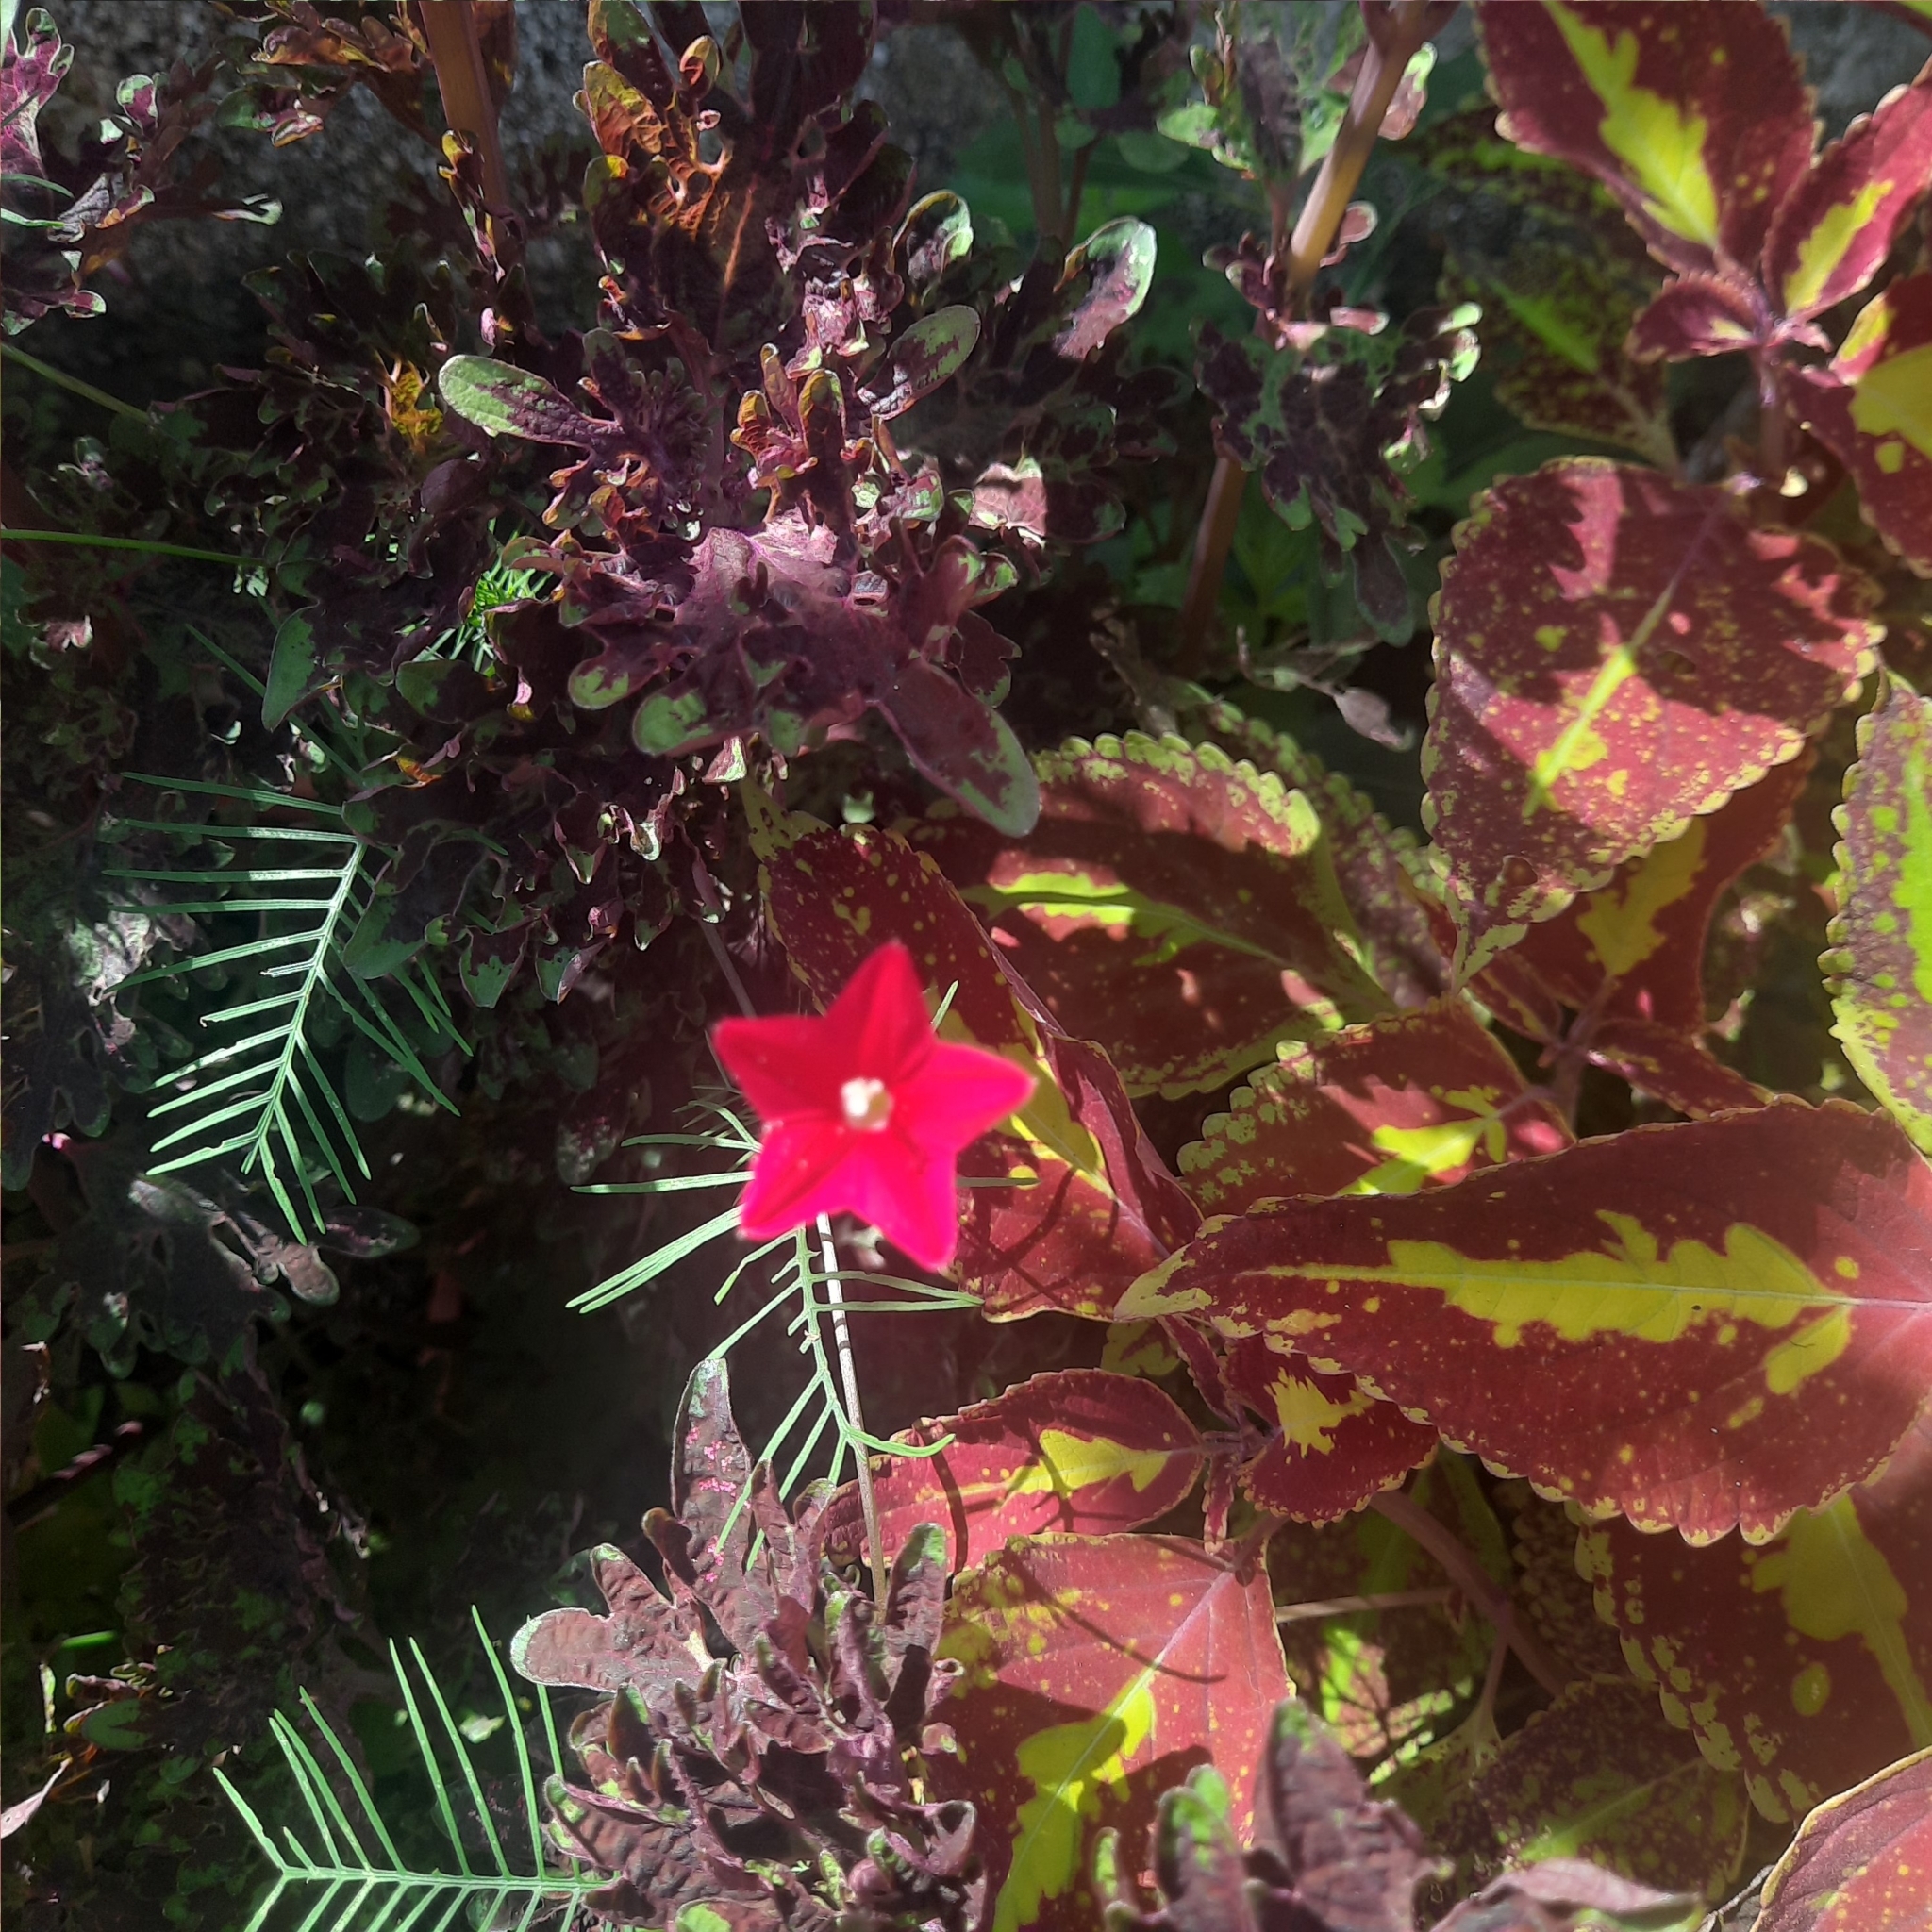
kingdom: Plantae
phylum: Tracheophyta
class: Magnoliopsida
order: Solanales
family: Convolvulaceae
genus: Ipomoea
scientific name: Ipomoea quamoclit
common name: Cypress vine
